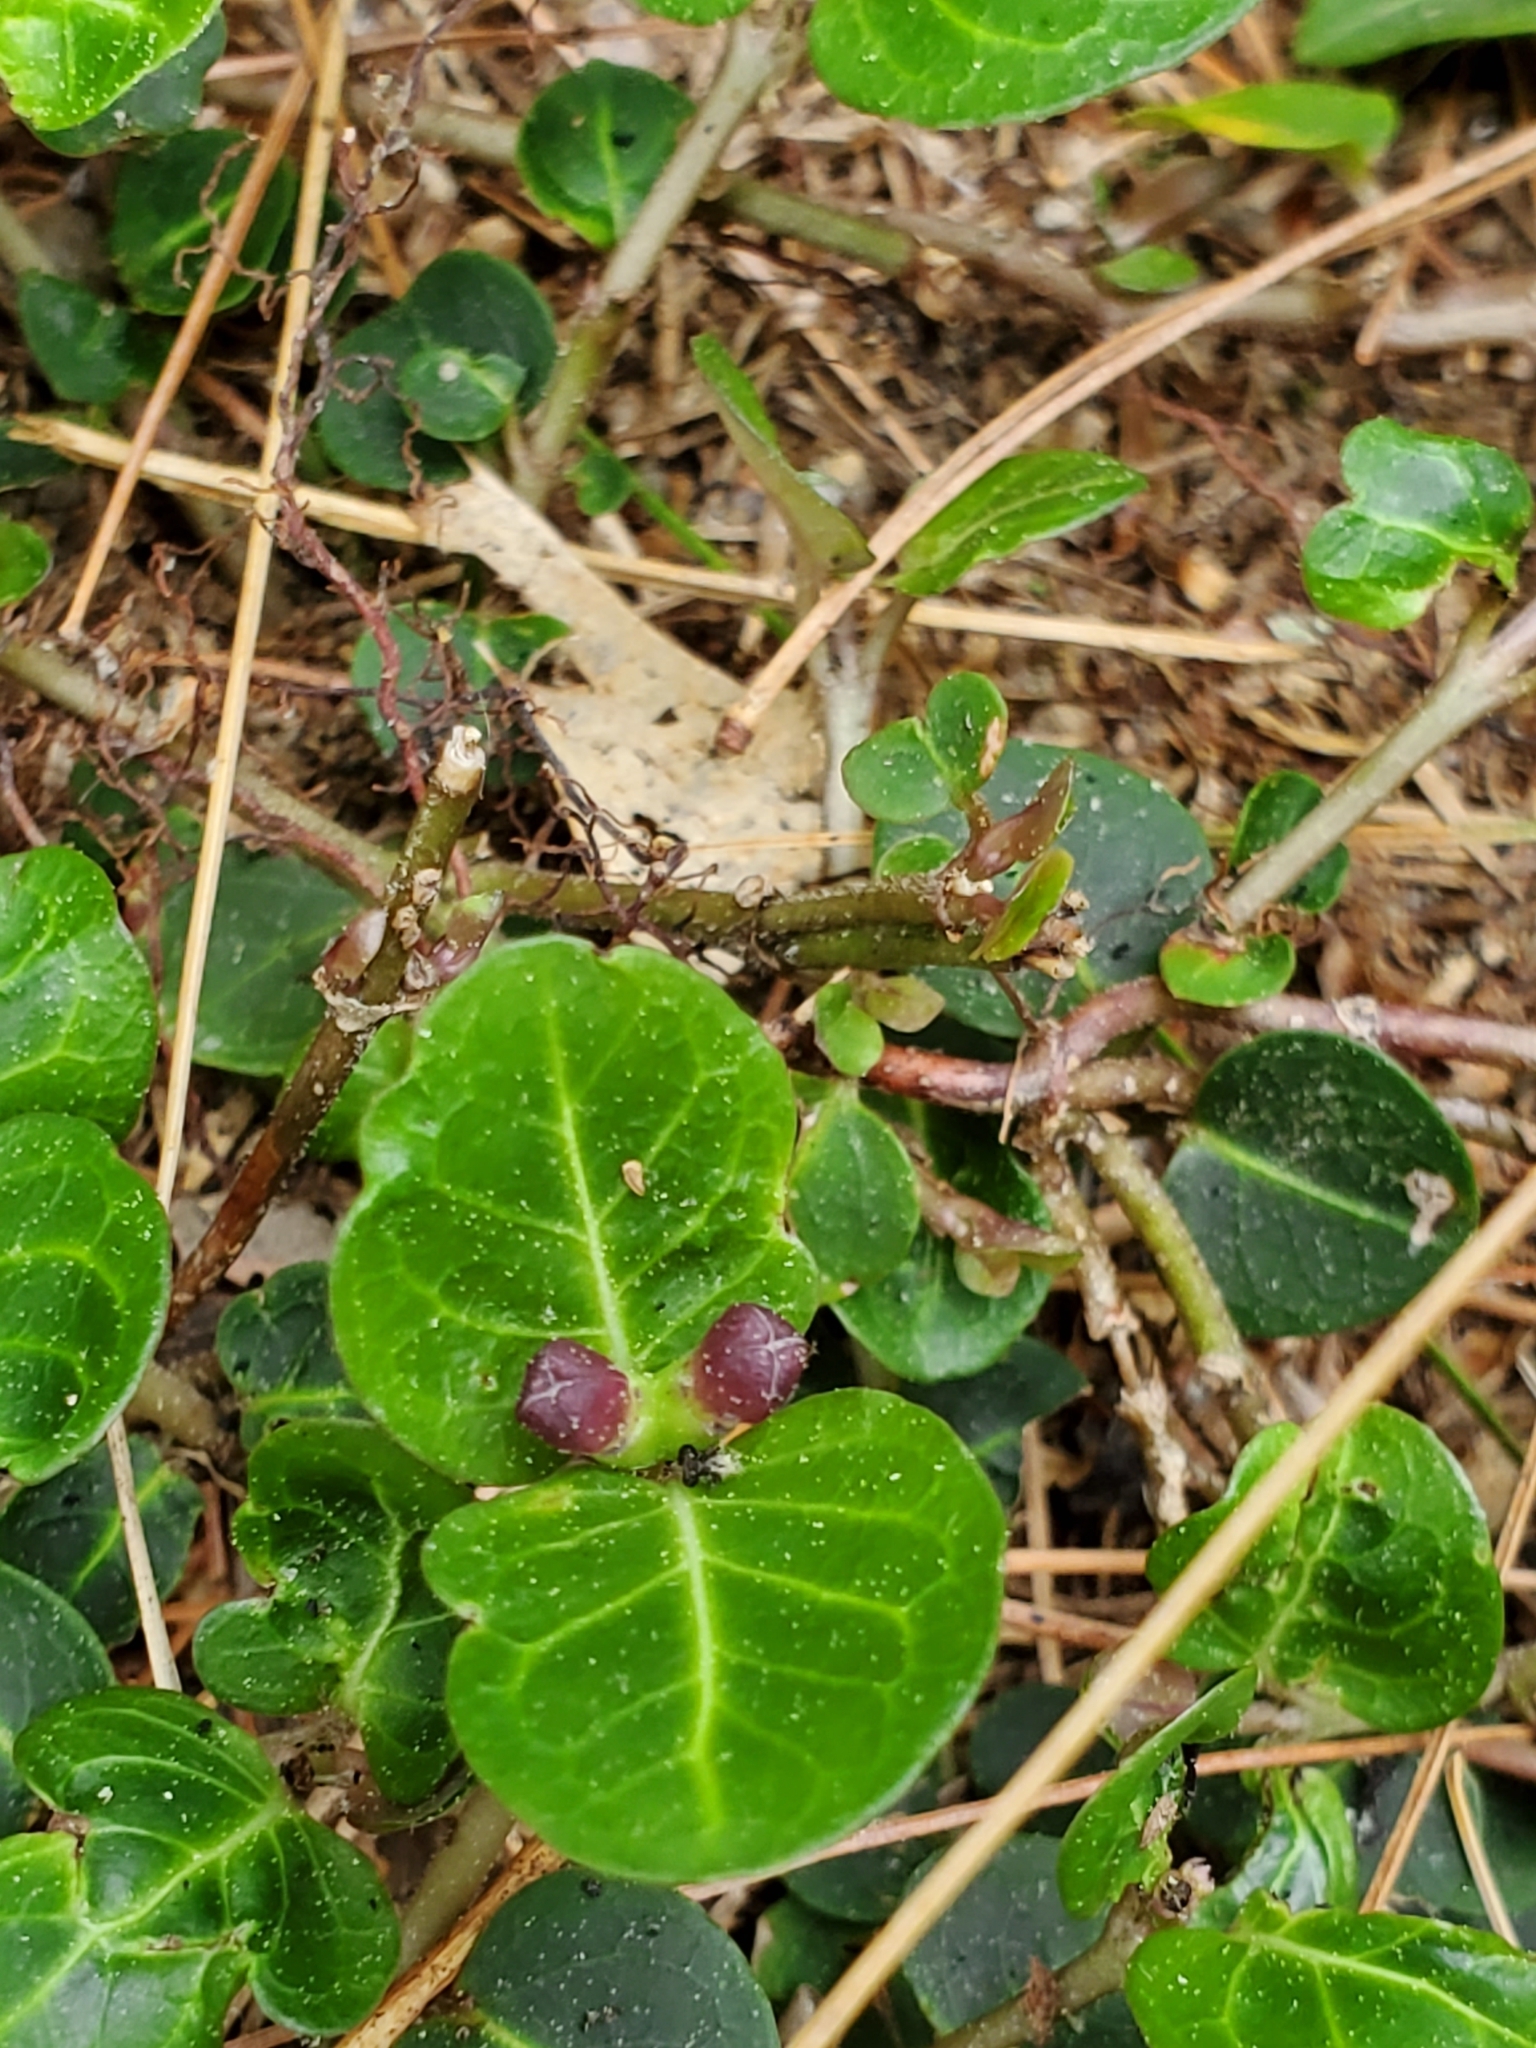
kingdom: Plantae
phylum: Tracheophyta
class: Magnoliopsida
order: Gentianales
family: Rubiaceae
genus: Mitchella
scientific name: Mitchella repens
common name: Partridge-berry
